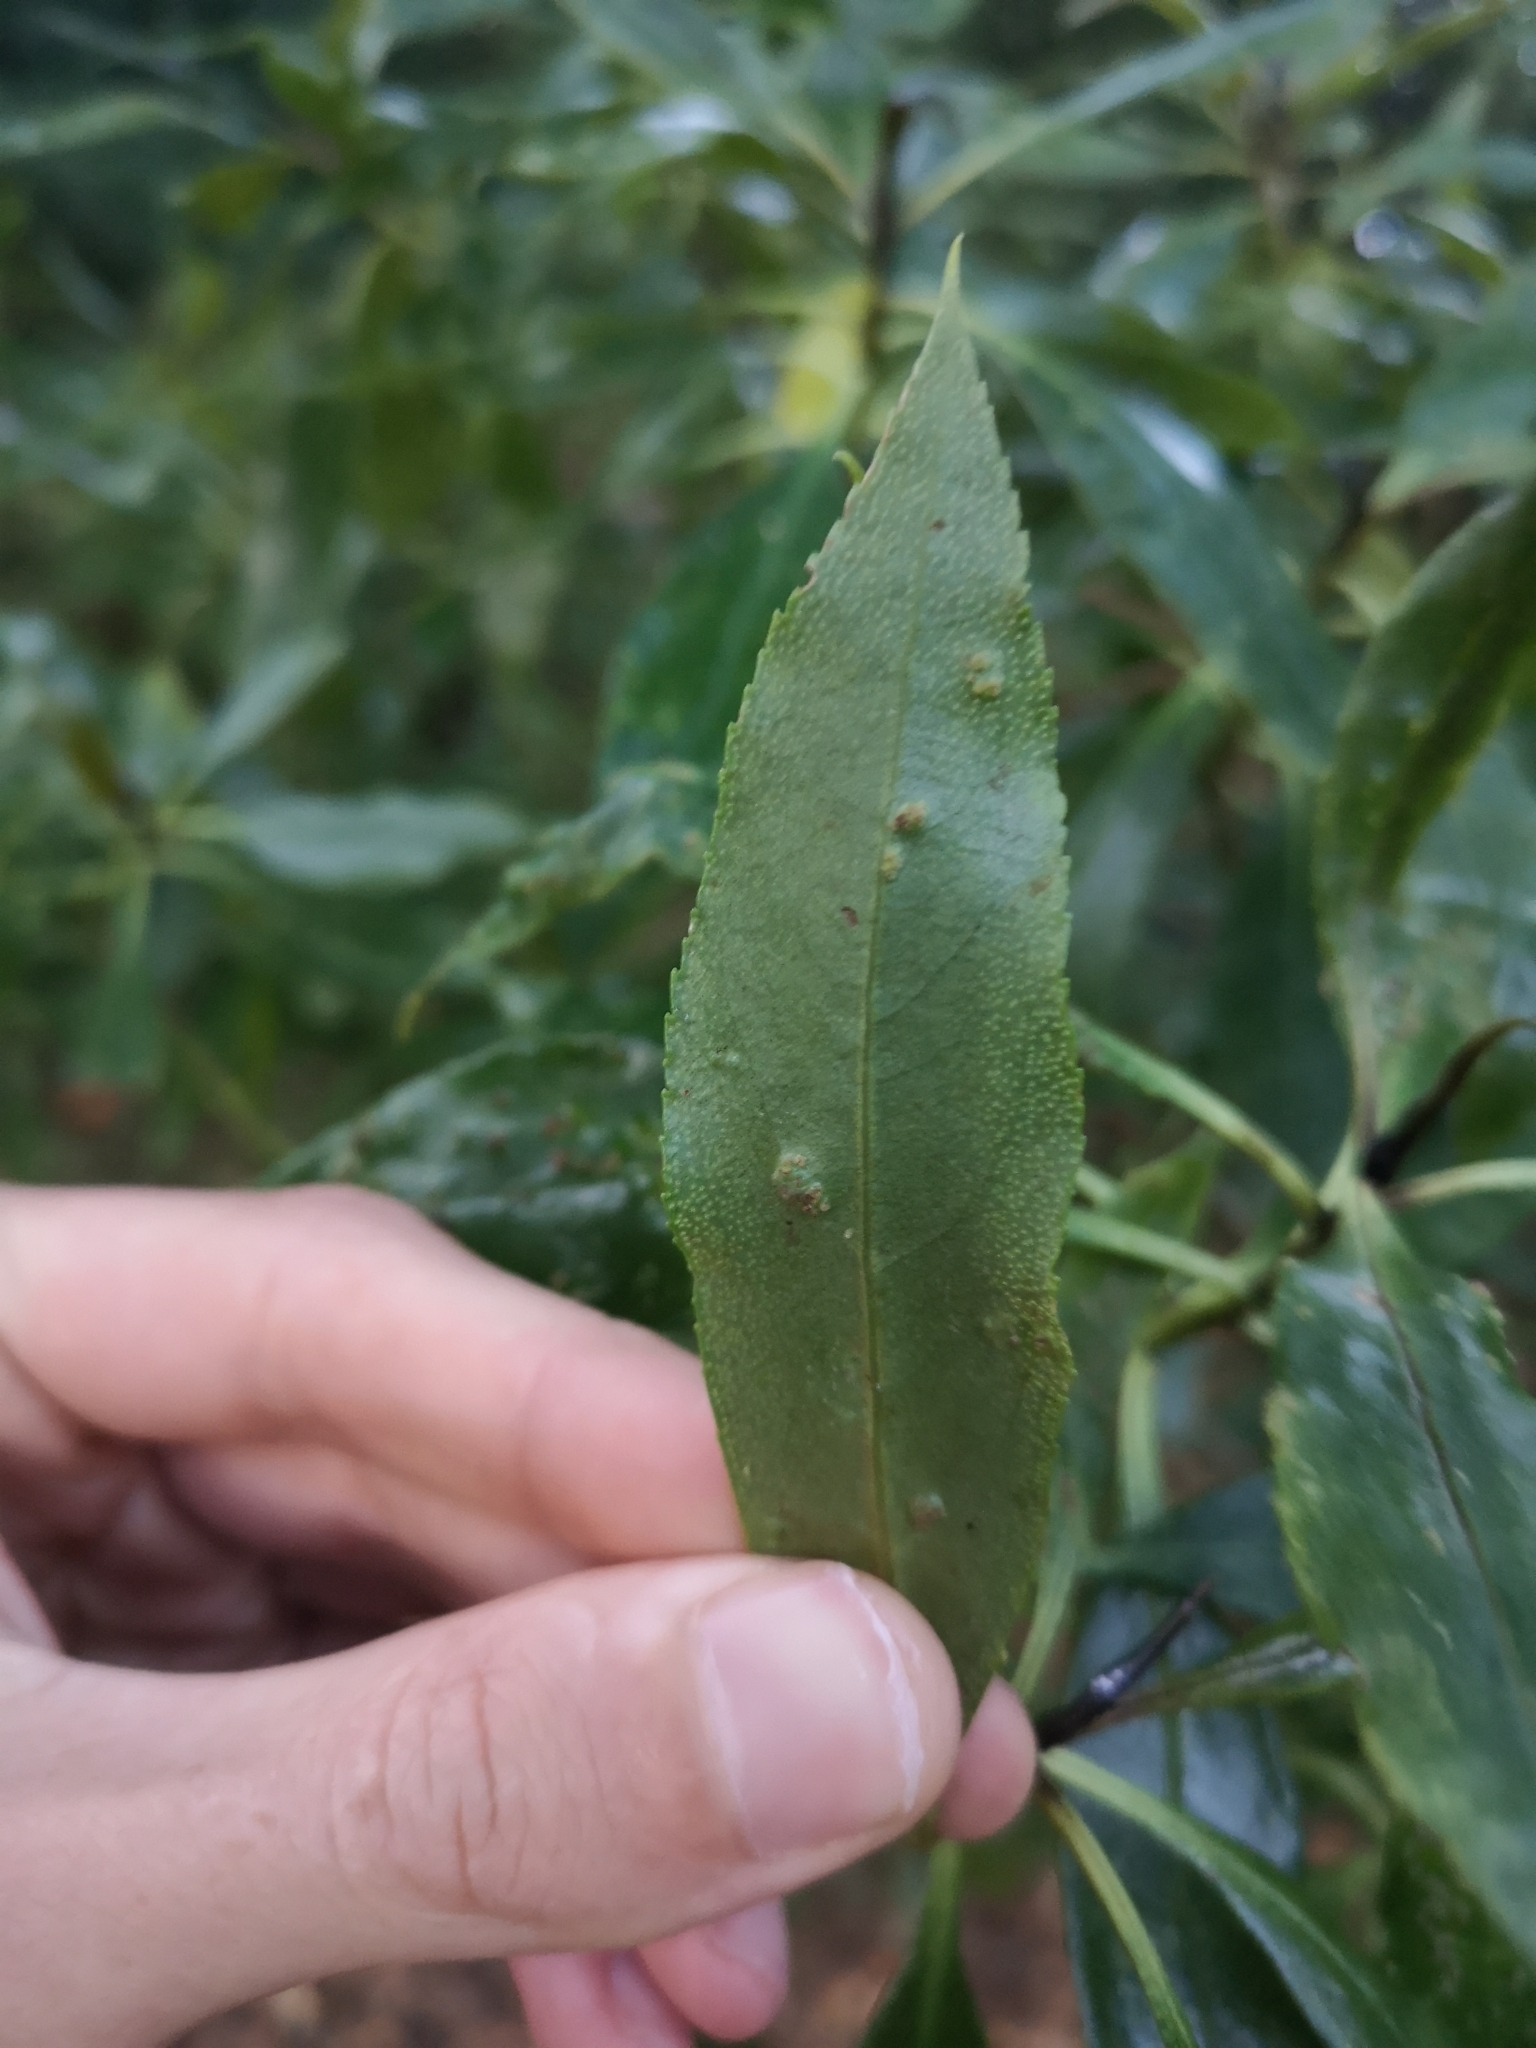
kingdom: Plantae
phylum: Tracheophyta
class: Magnoliopsida
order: Lamiales
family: Scrophulariaceae
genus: Myoporum
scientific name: Myoporum laetum
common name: Ngaio tree
